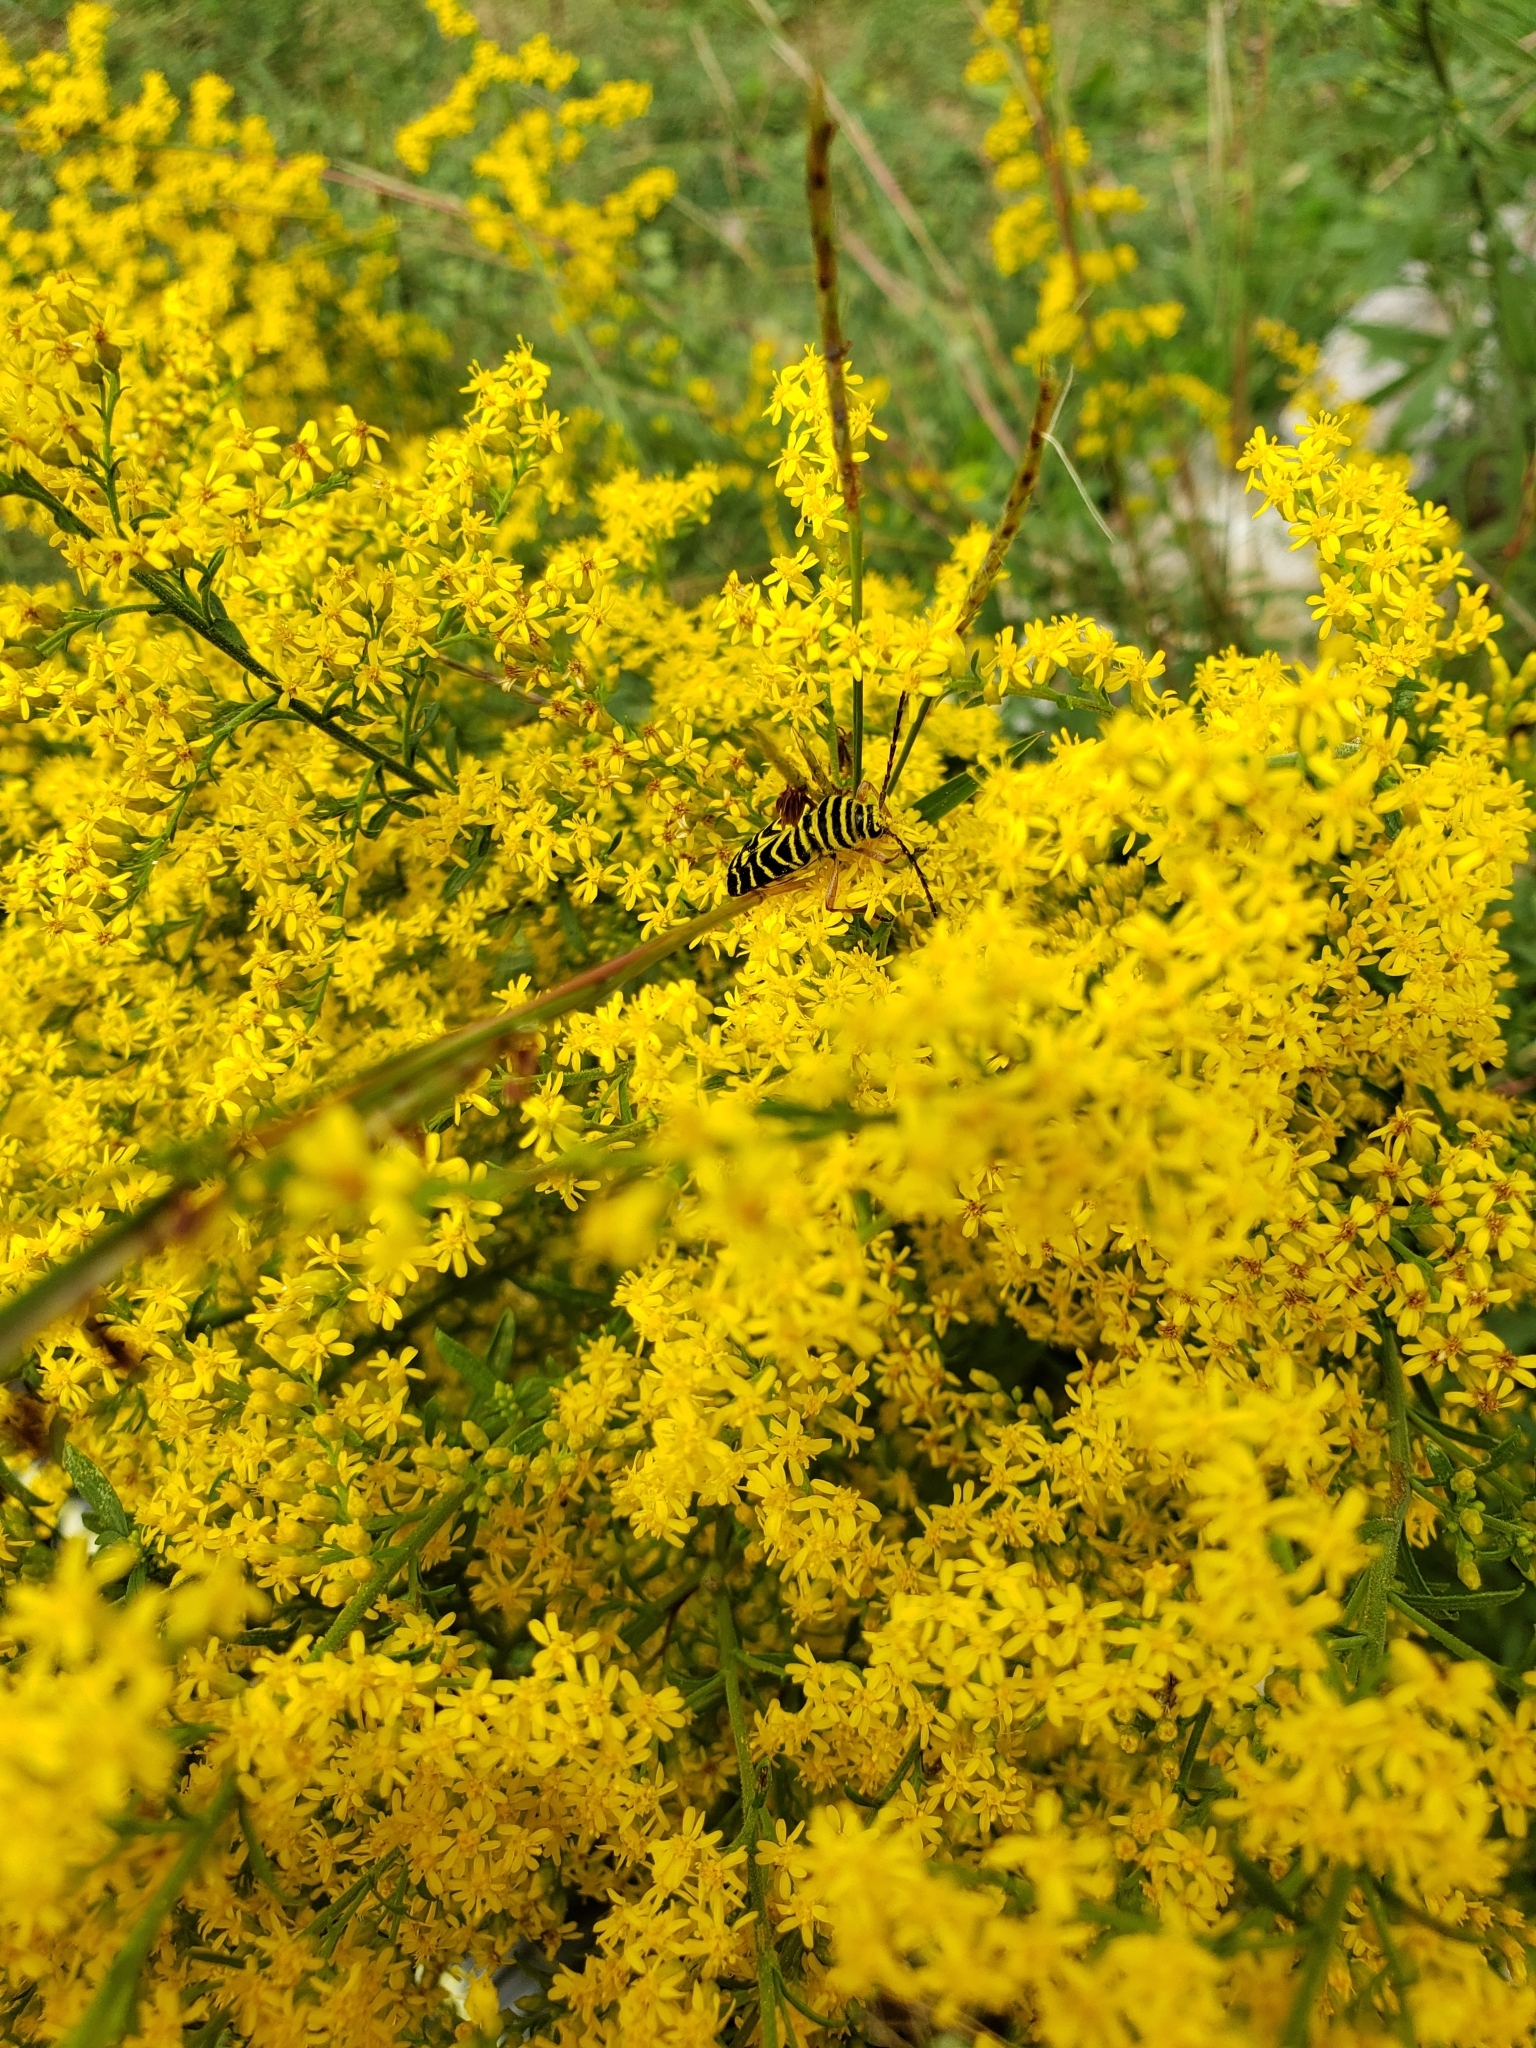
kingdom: Animalia
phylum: Arthropoda
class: Insecta
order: Coleoptera
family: Cerambycidae
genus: Megacyllene
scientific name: Megacyllene robiniae
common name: Locust borer
